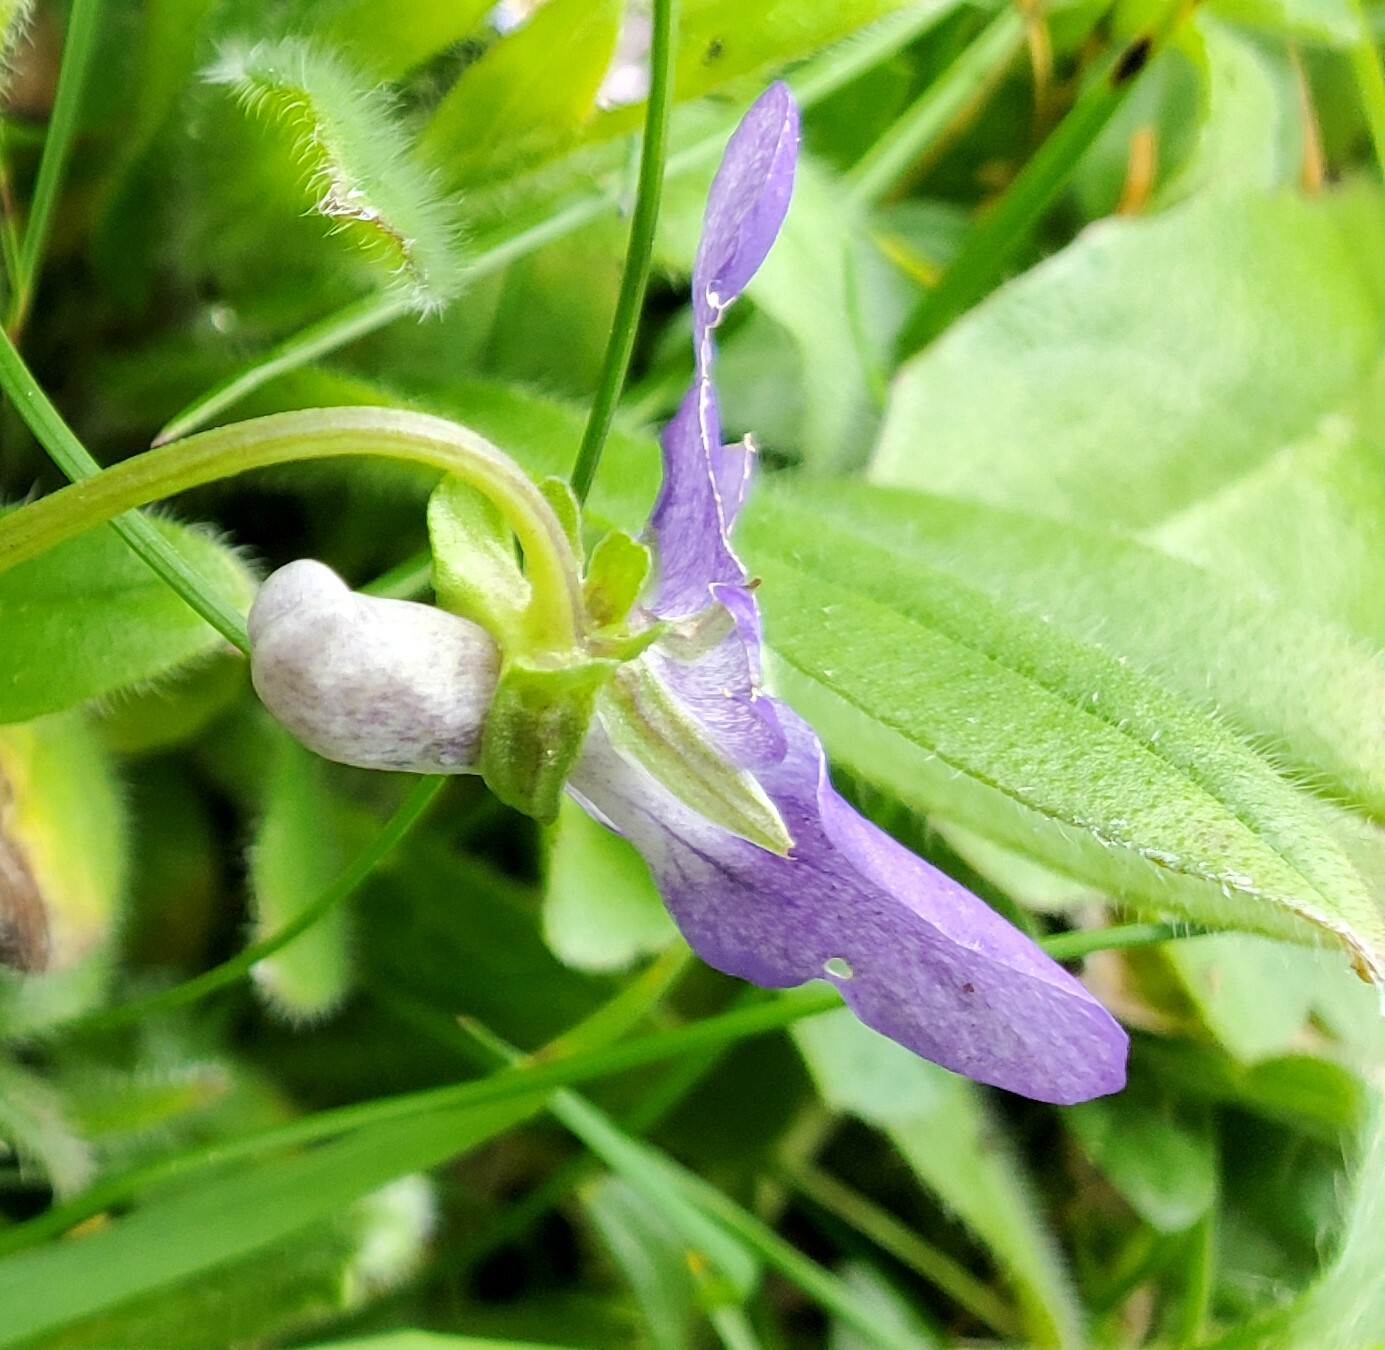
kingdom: Plantae
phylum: Tracheophyta
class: Magnoliopsida
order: Malpighiales
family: Violaceae
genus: Viola
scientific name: Viola riviniana
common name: Common dog-violet
